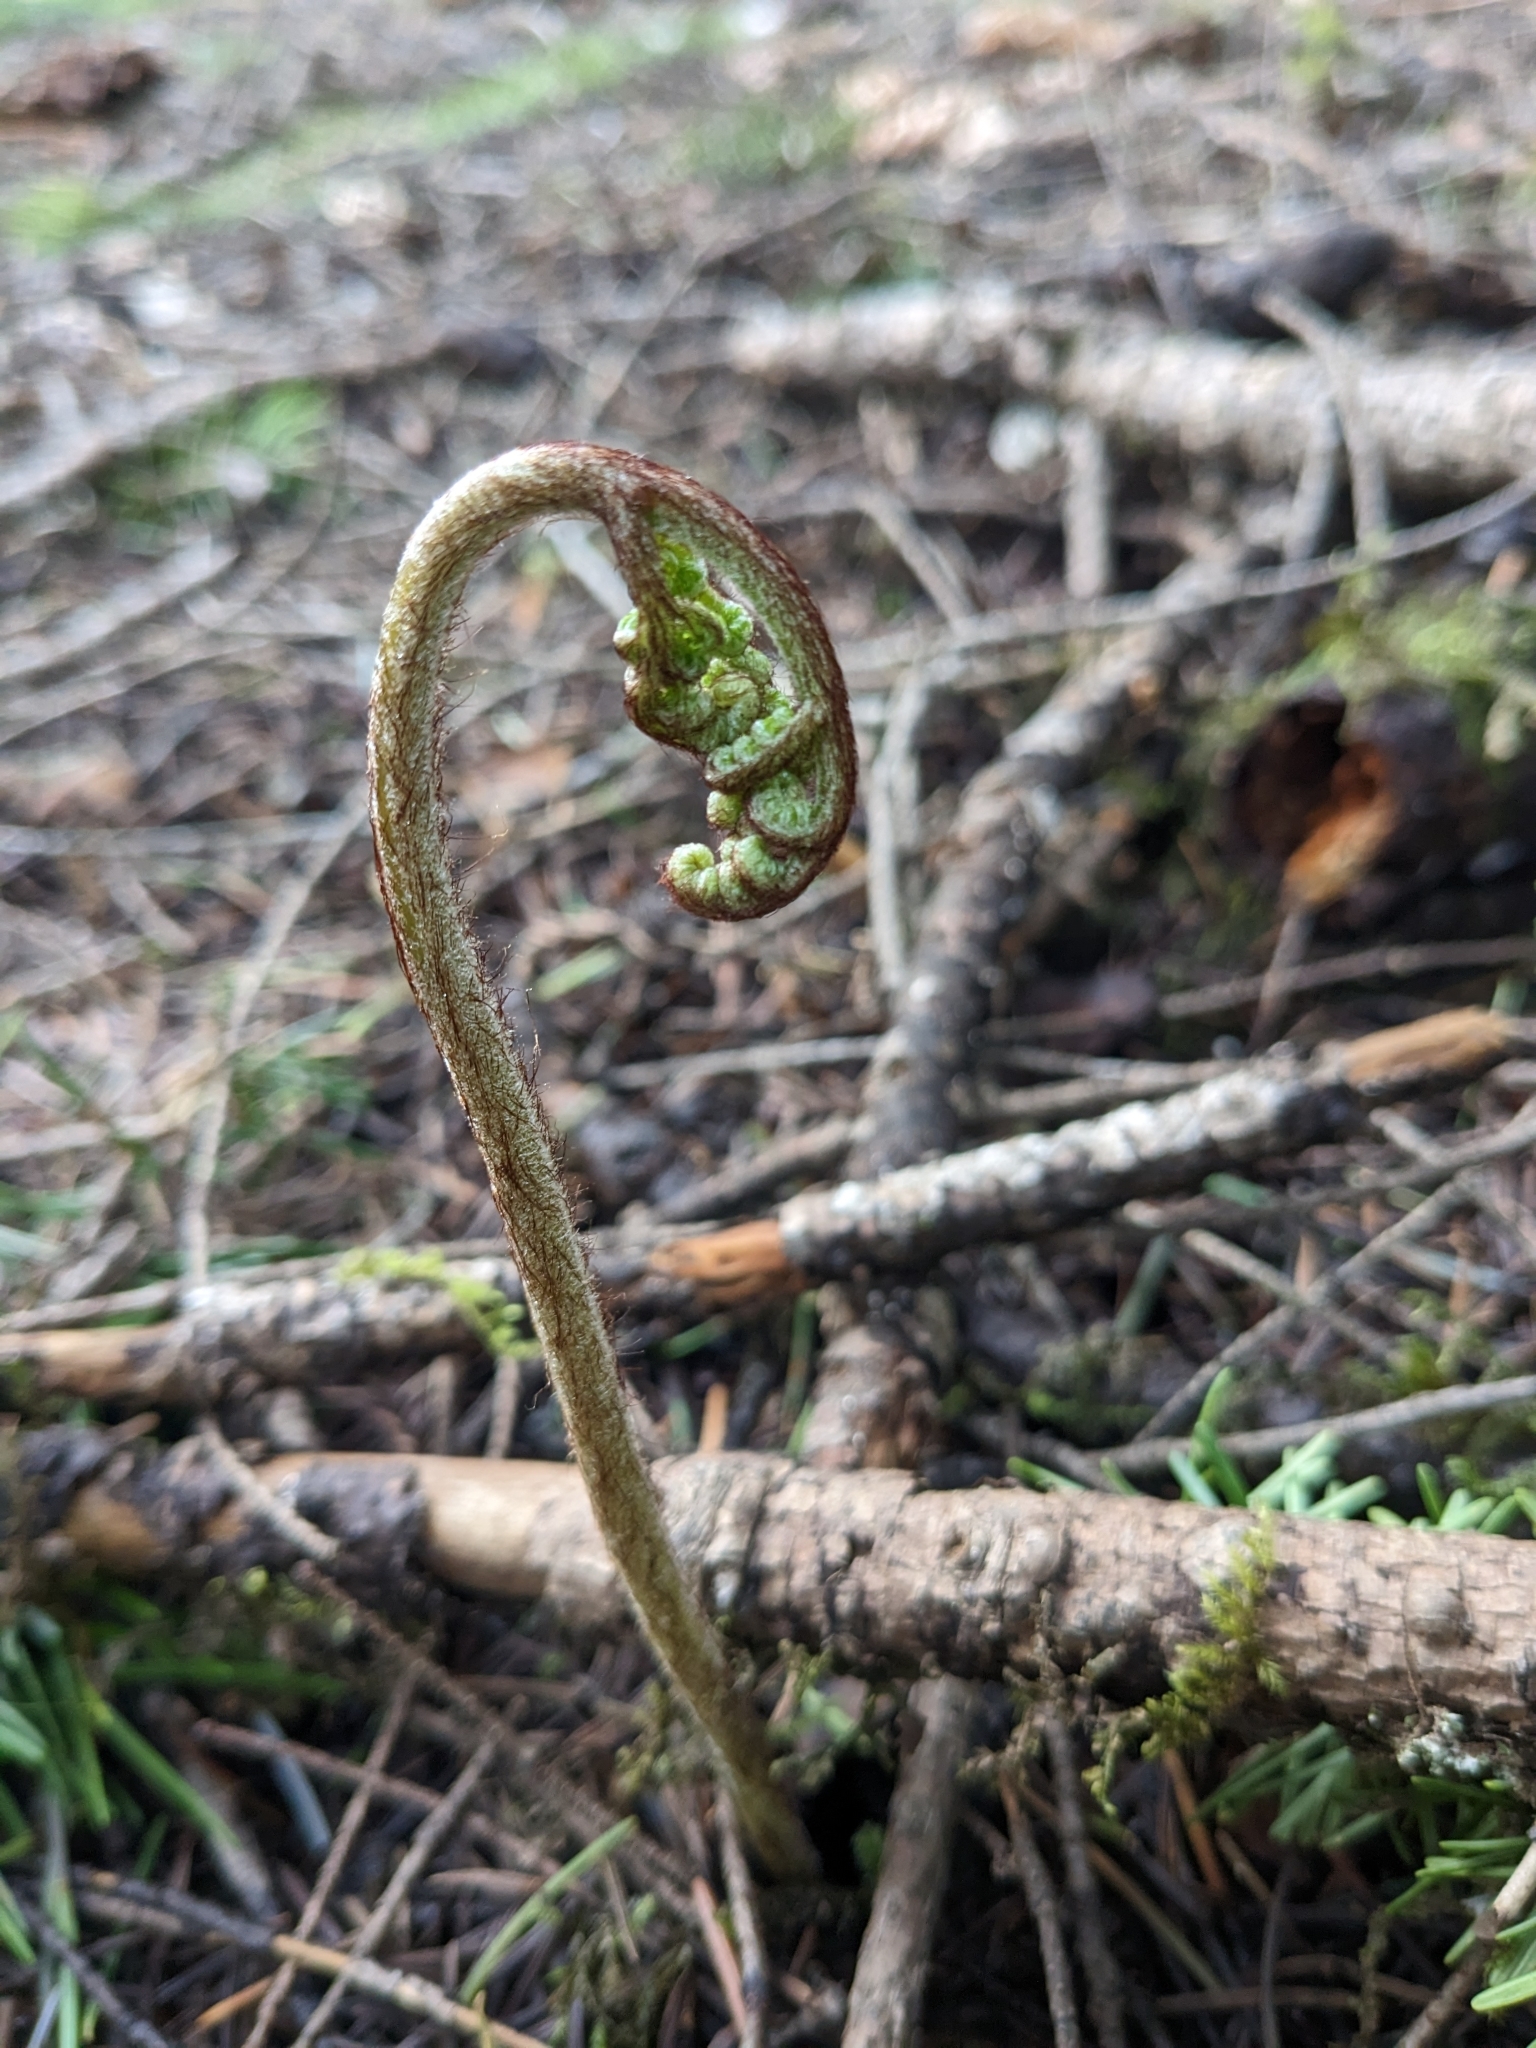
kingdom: Plantae
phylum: Tracheophyta
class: Polypodiopsida
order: Polypodiales
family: Dennstaedtiaceae
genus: Pteridium
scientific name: Pteridium aquilinum
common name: Bracken
